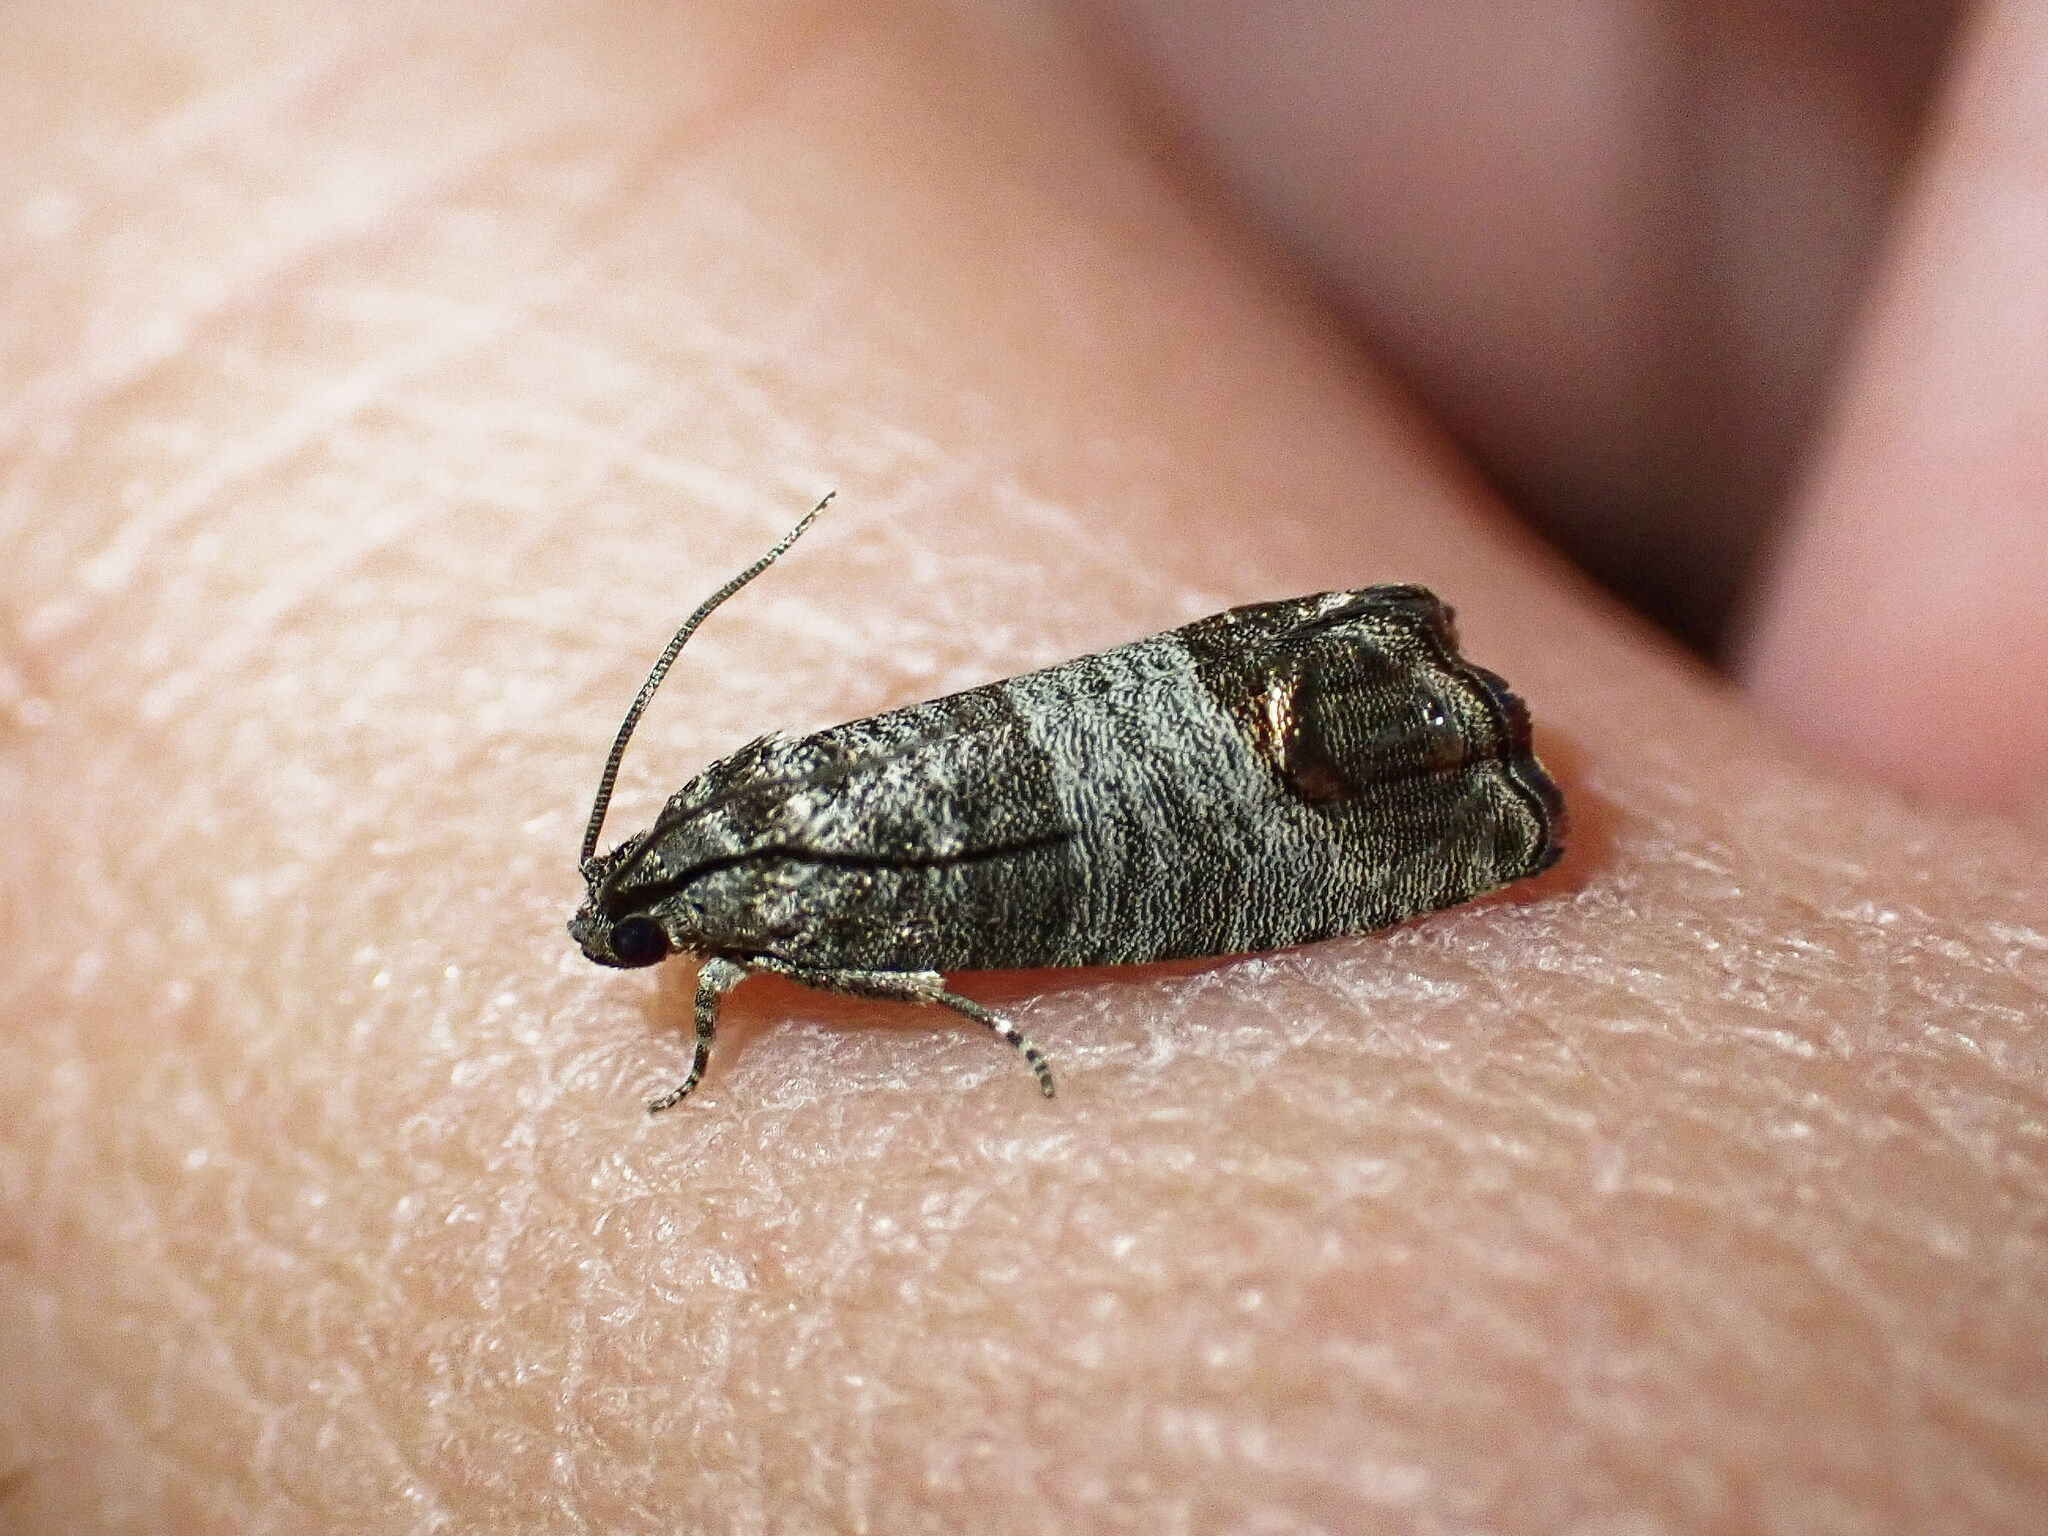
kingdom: Animalia
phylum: Arthropoda
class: Insecta
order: Lepidoptera
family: Tortricidae
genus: Cydia
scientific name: Cydia pomonella
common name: Codling moth
